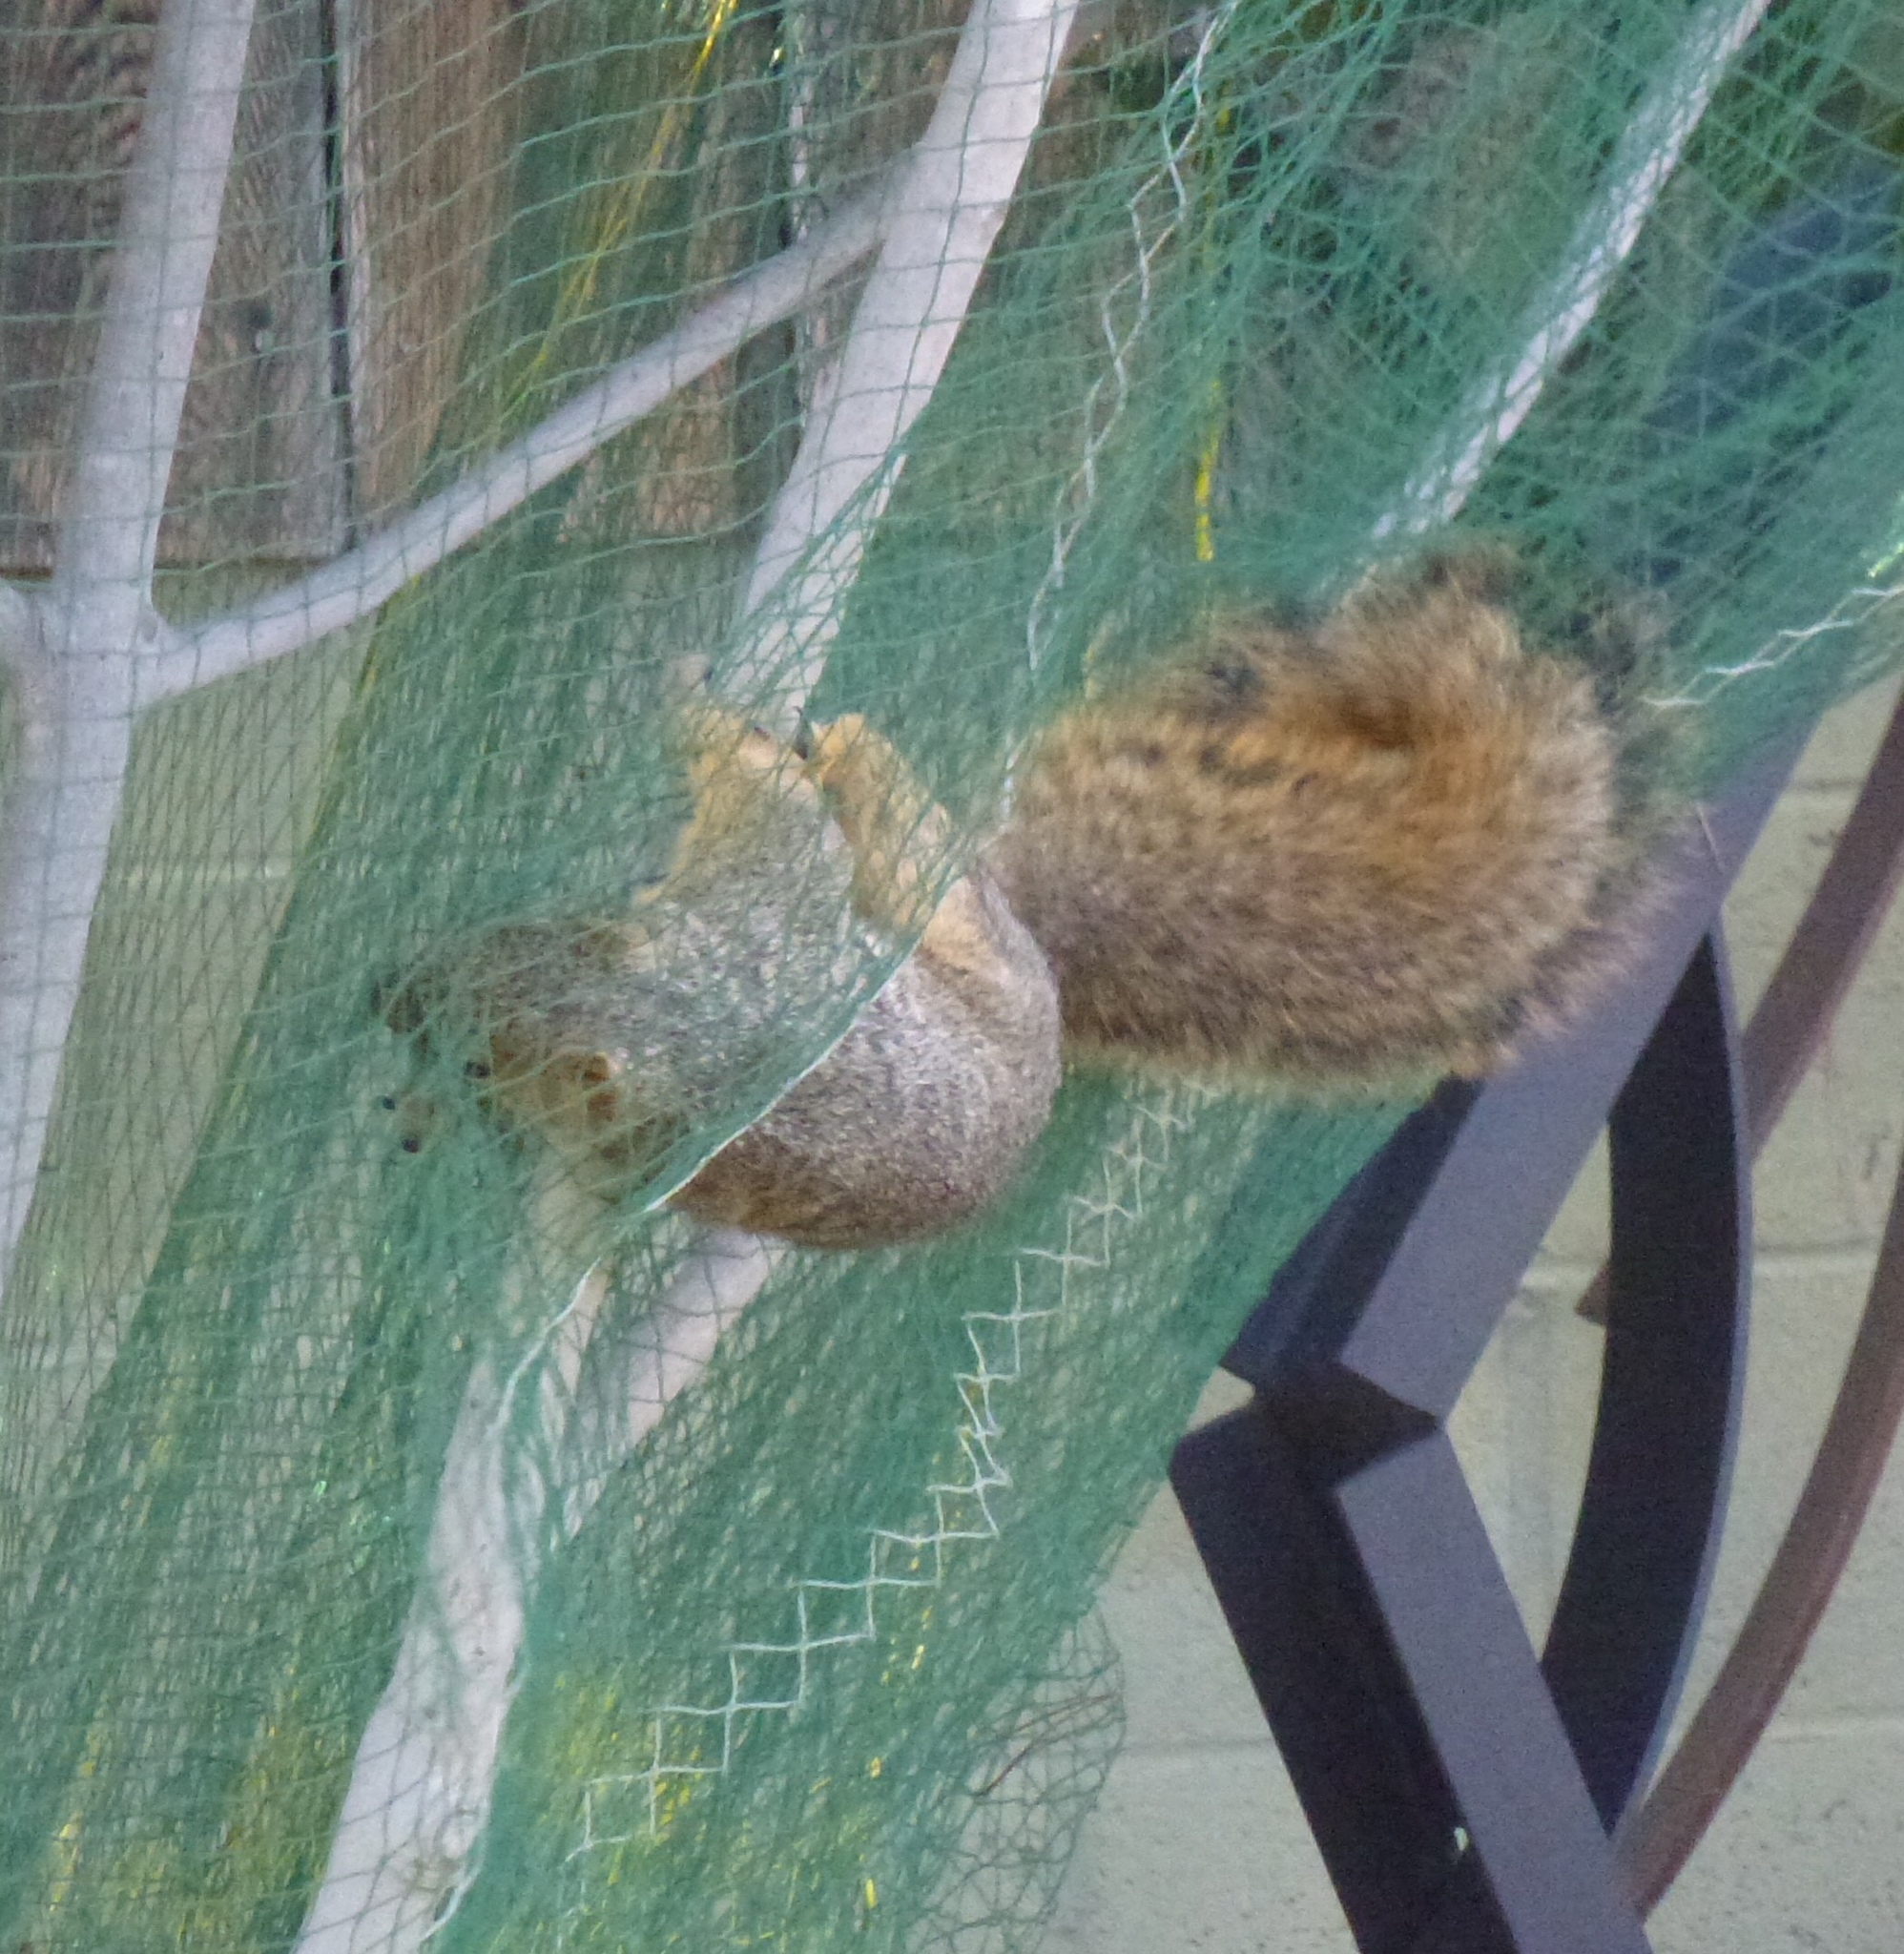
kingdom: Animalia
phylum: Chordata
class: Mammalia
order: Rodentia
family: Sciuridae
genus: Sciurus
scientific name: Sciurus niger
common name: Fox squirrel
